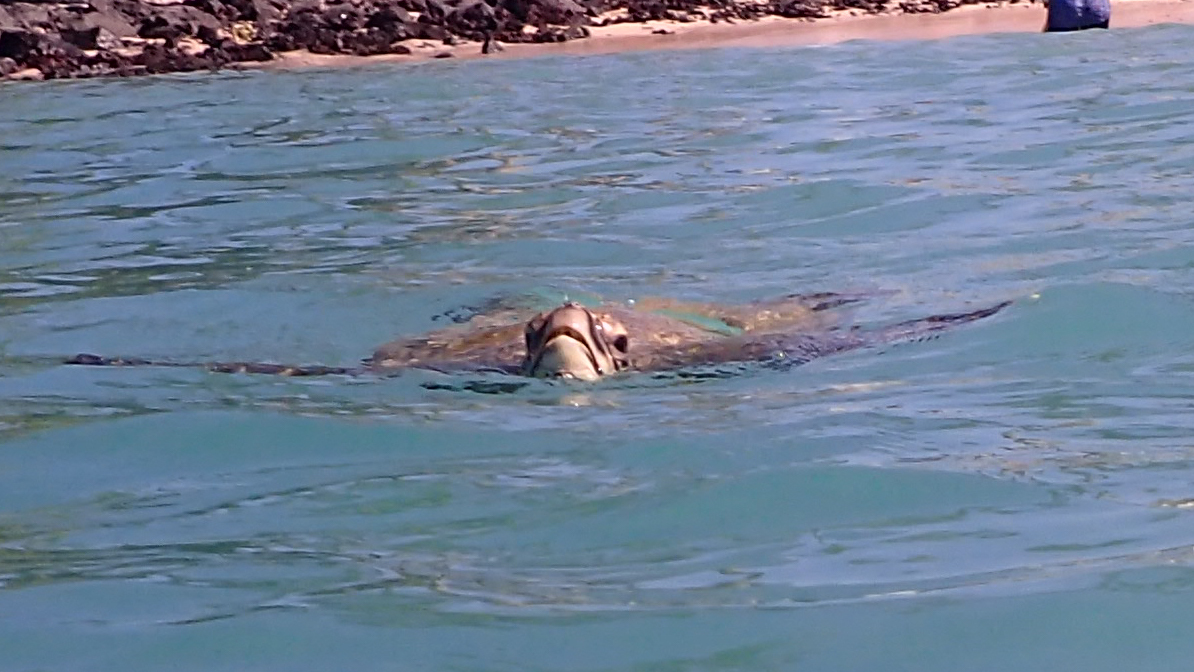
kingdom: Animalia
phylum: Chordata
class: Testudines
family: Cheloniidae
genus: Chelonia
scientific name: Chelonia mydas
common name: Green turtle
